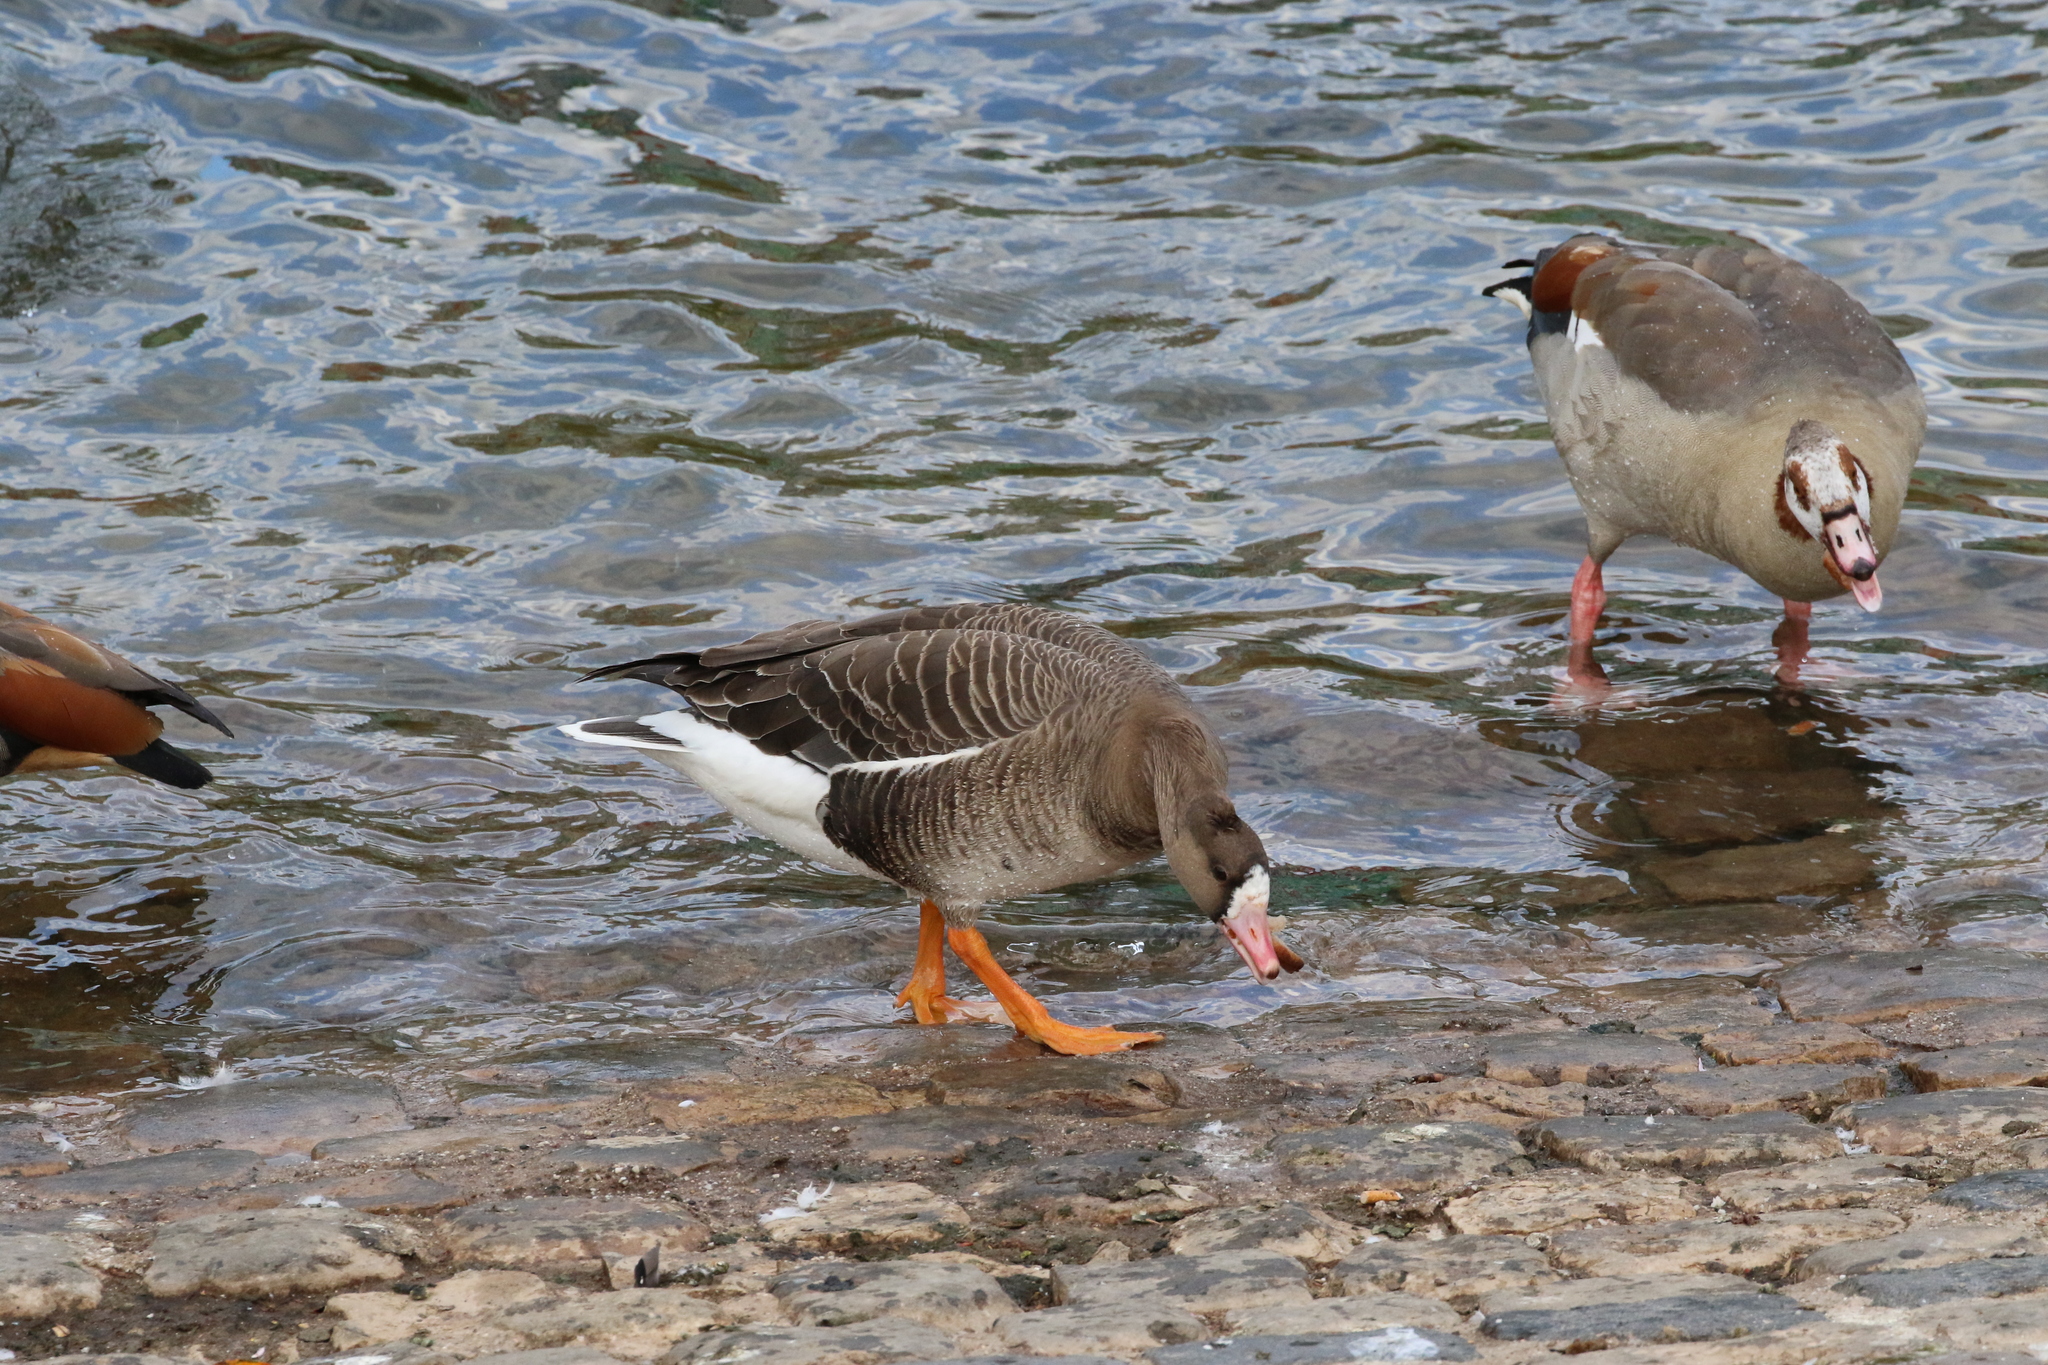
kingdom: Animalia
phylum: Chordata
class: Aves
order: Anseriformes
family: Anatidae
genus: Anser
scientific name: Anser albifrons
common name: Greater white-fronted goose
